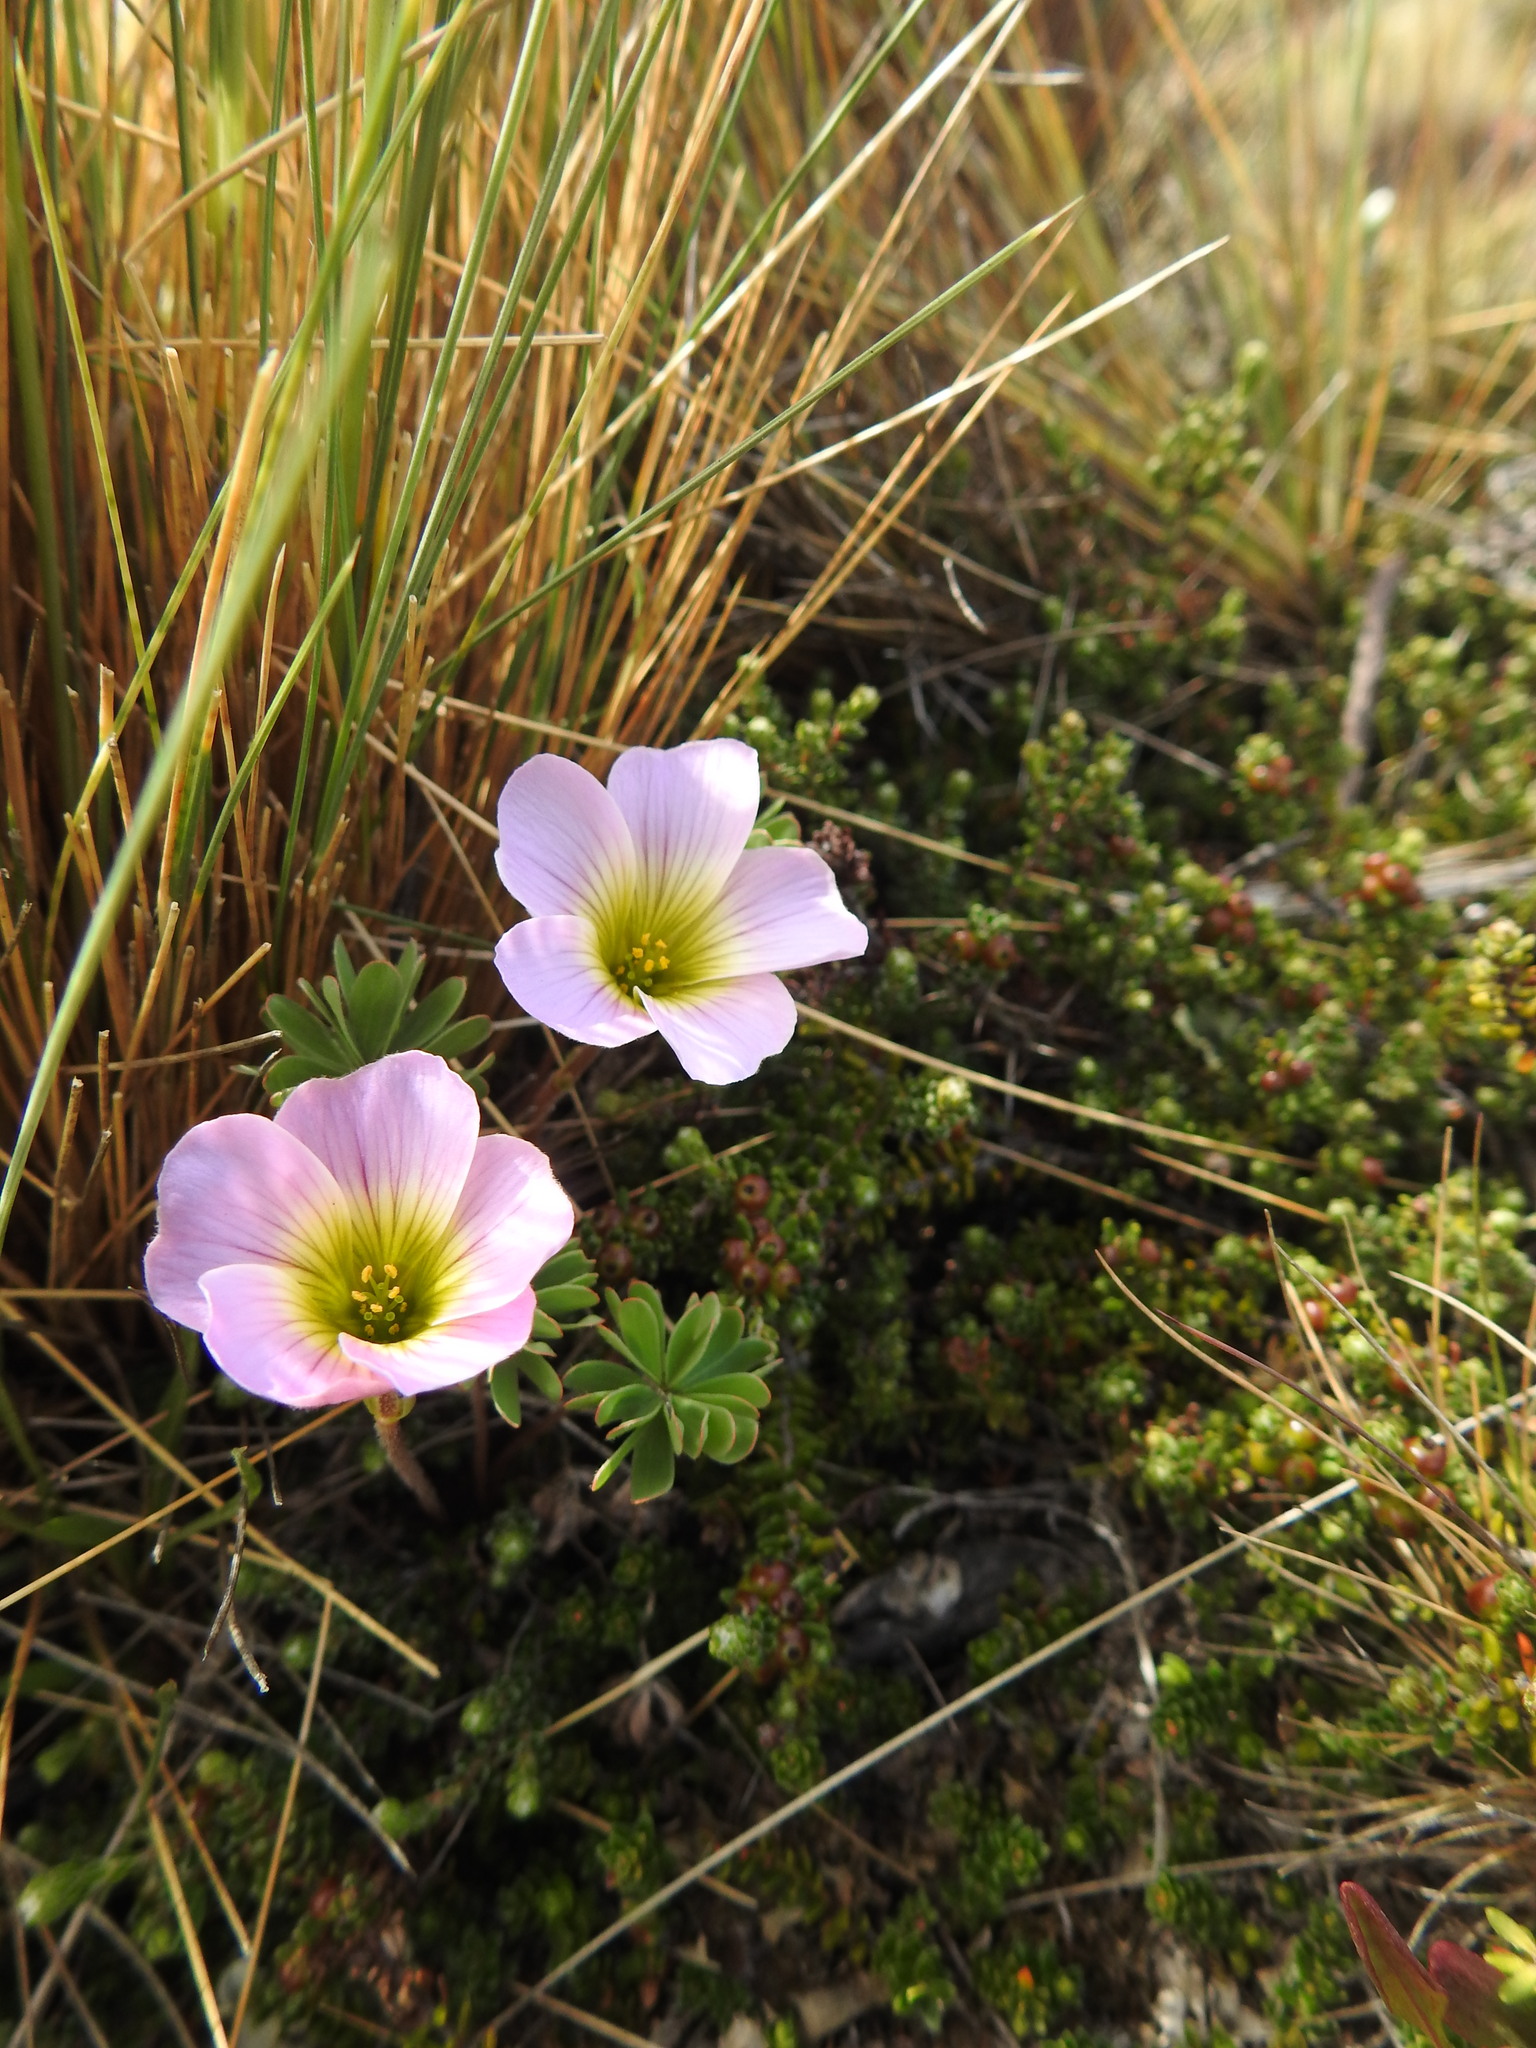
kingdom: Plantae
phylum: Tracheophyta
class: Magnoliopsida
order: Oxalidales
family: Oxalidaceae
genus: Oxalis
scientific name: Oxalis enneaphylla
